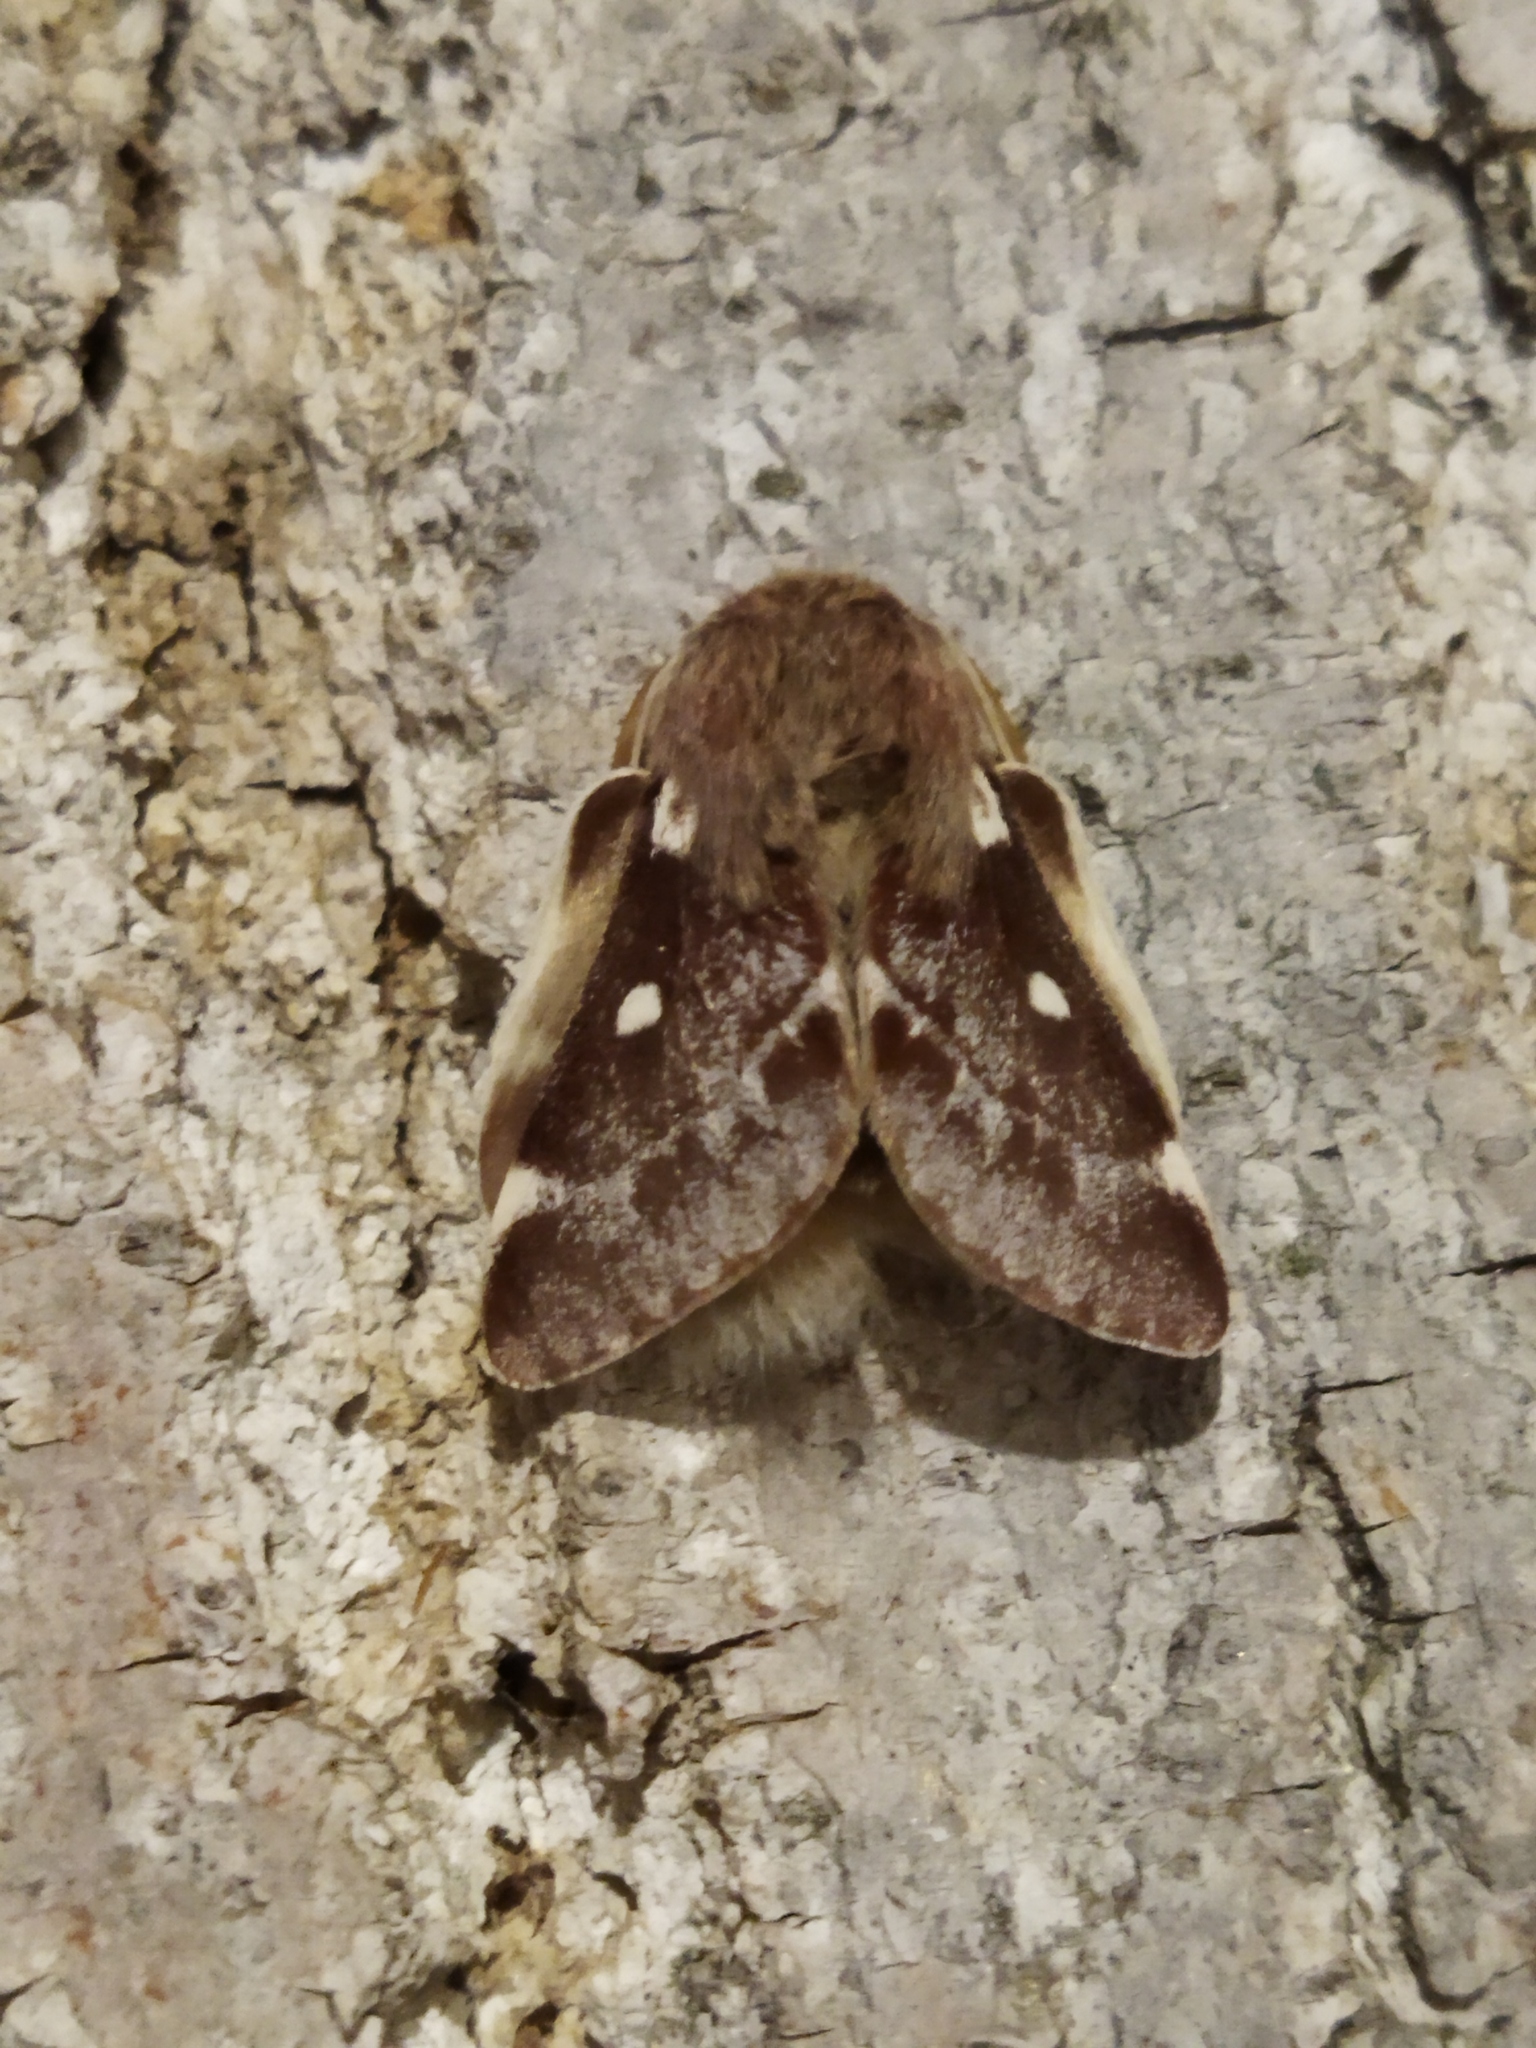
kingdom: Animalia
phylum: Arthropoda
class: Insecta
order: Lepidoptera
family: Lasiocampidae
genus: Eriogaster
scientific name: Eriogaster lanestris
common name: Small eggar
